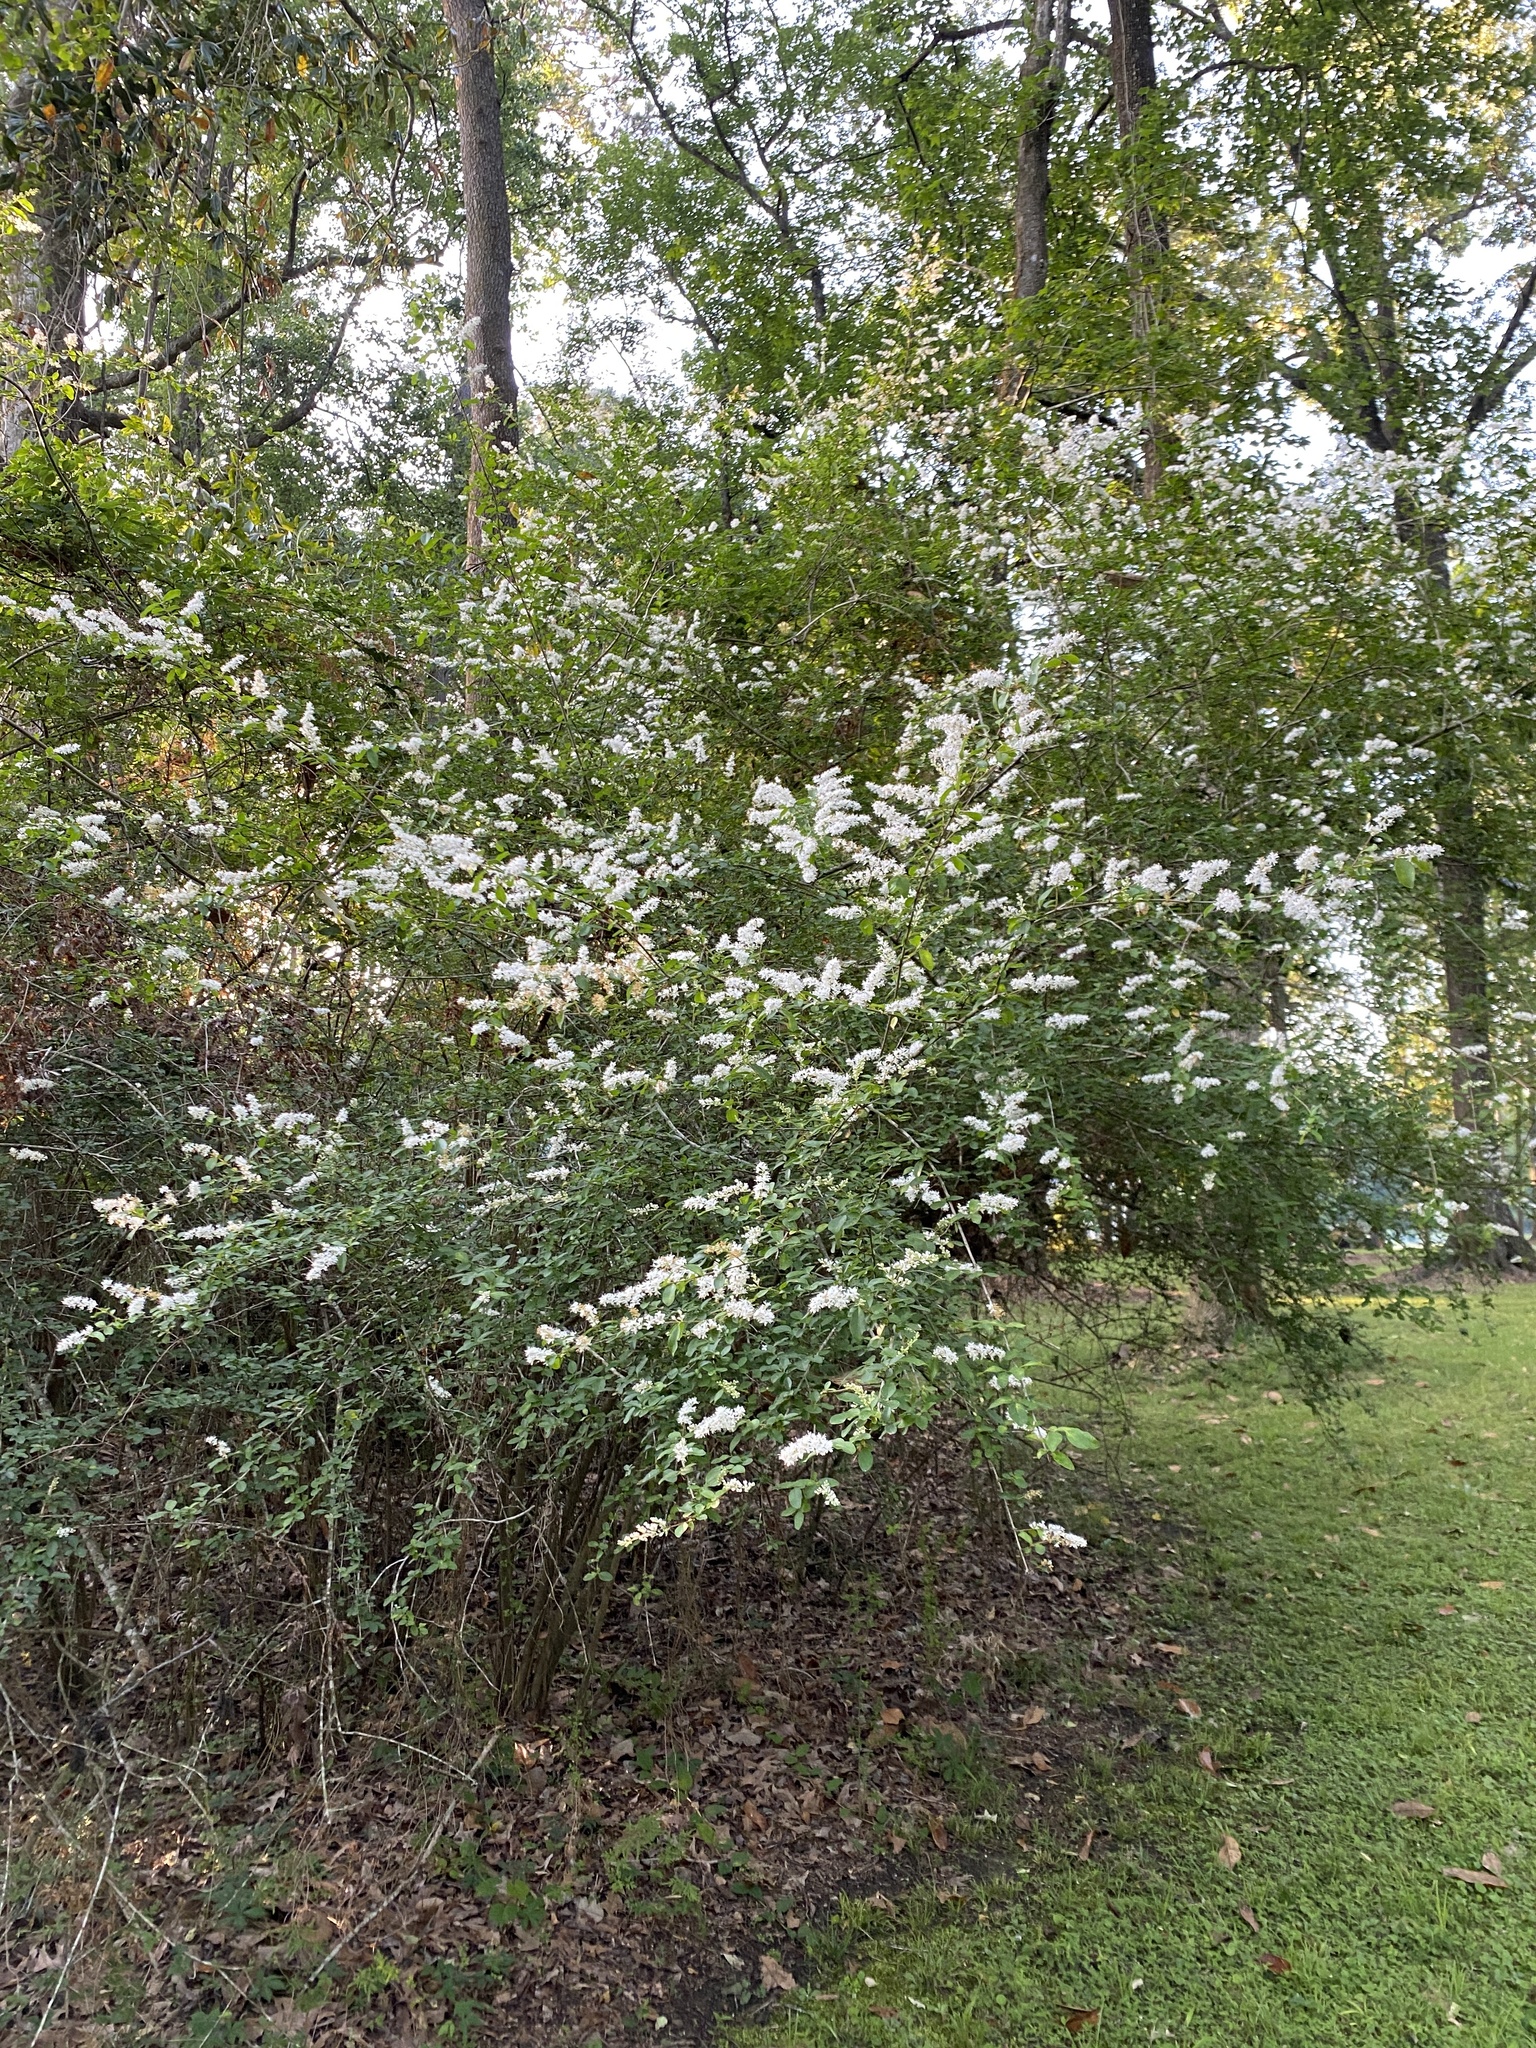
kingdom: Plantae
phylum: Tracheophyta
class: Magnoliopsida
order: Lamiales
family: Oleaceae
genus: Ligustrum
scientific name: Ligustrum sinense
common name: Chinese privet
